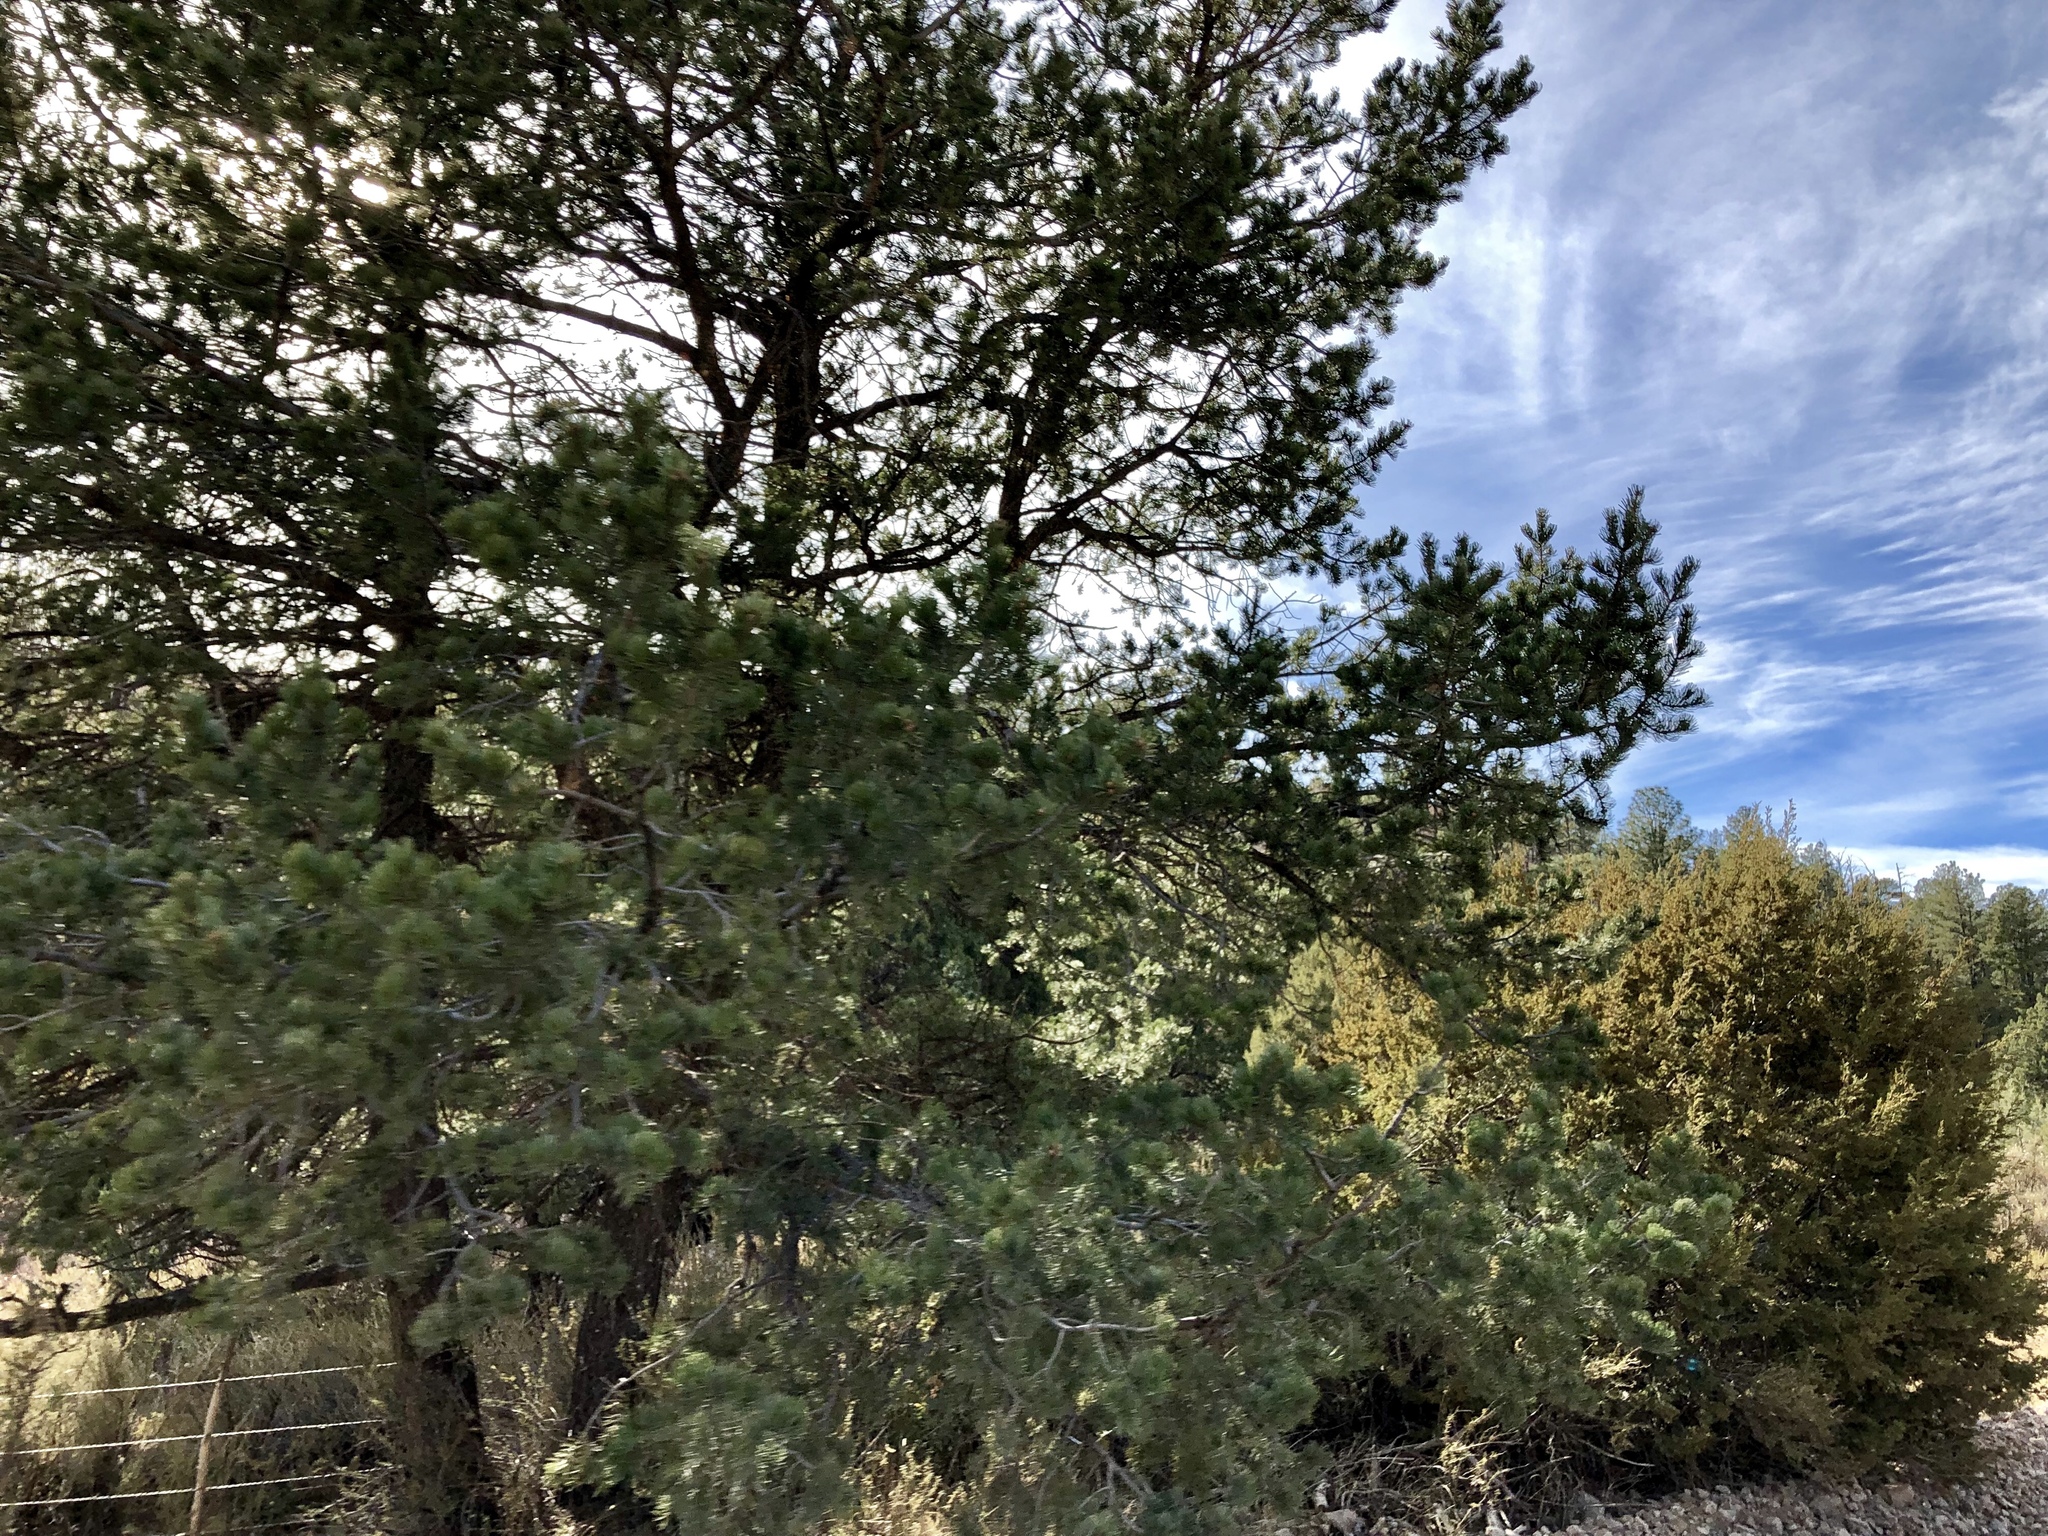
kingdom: Plantae
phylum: Tracheophyta
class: Pinopsida
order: Pinales
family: Pinaceae
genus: Pinus
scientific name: Pinus edulis
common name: Colorado pinyon
